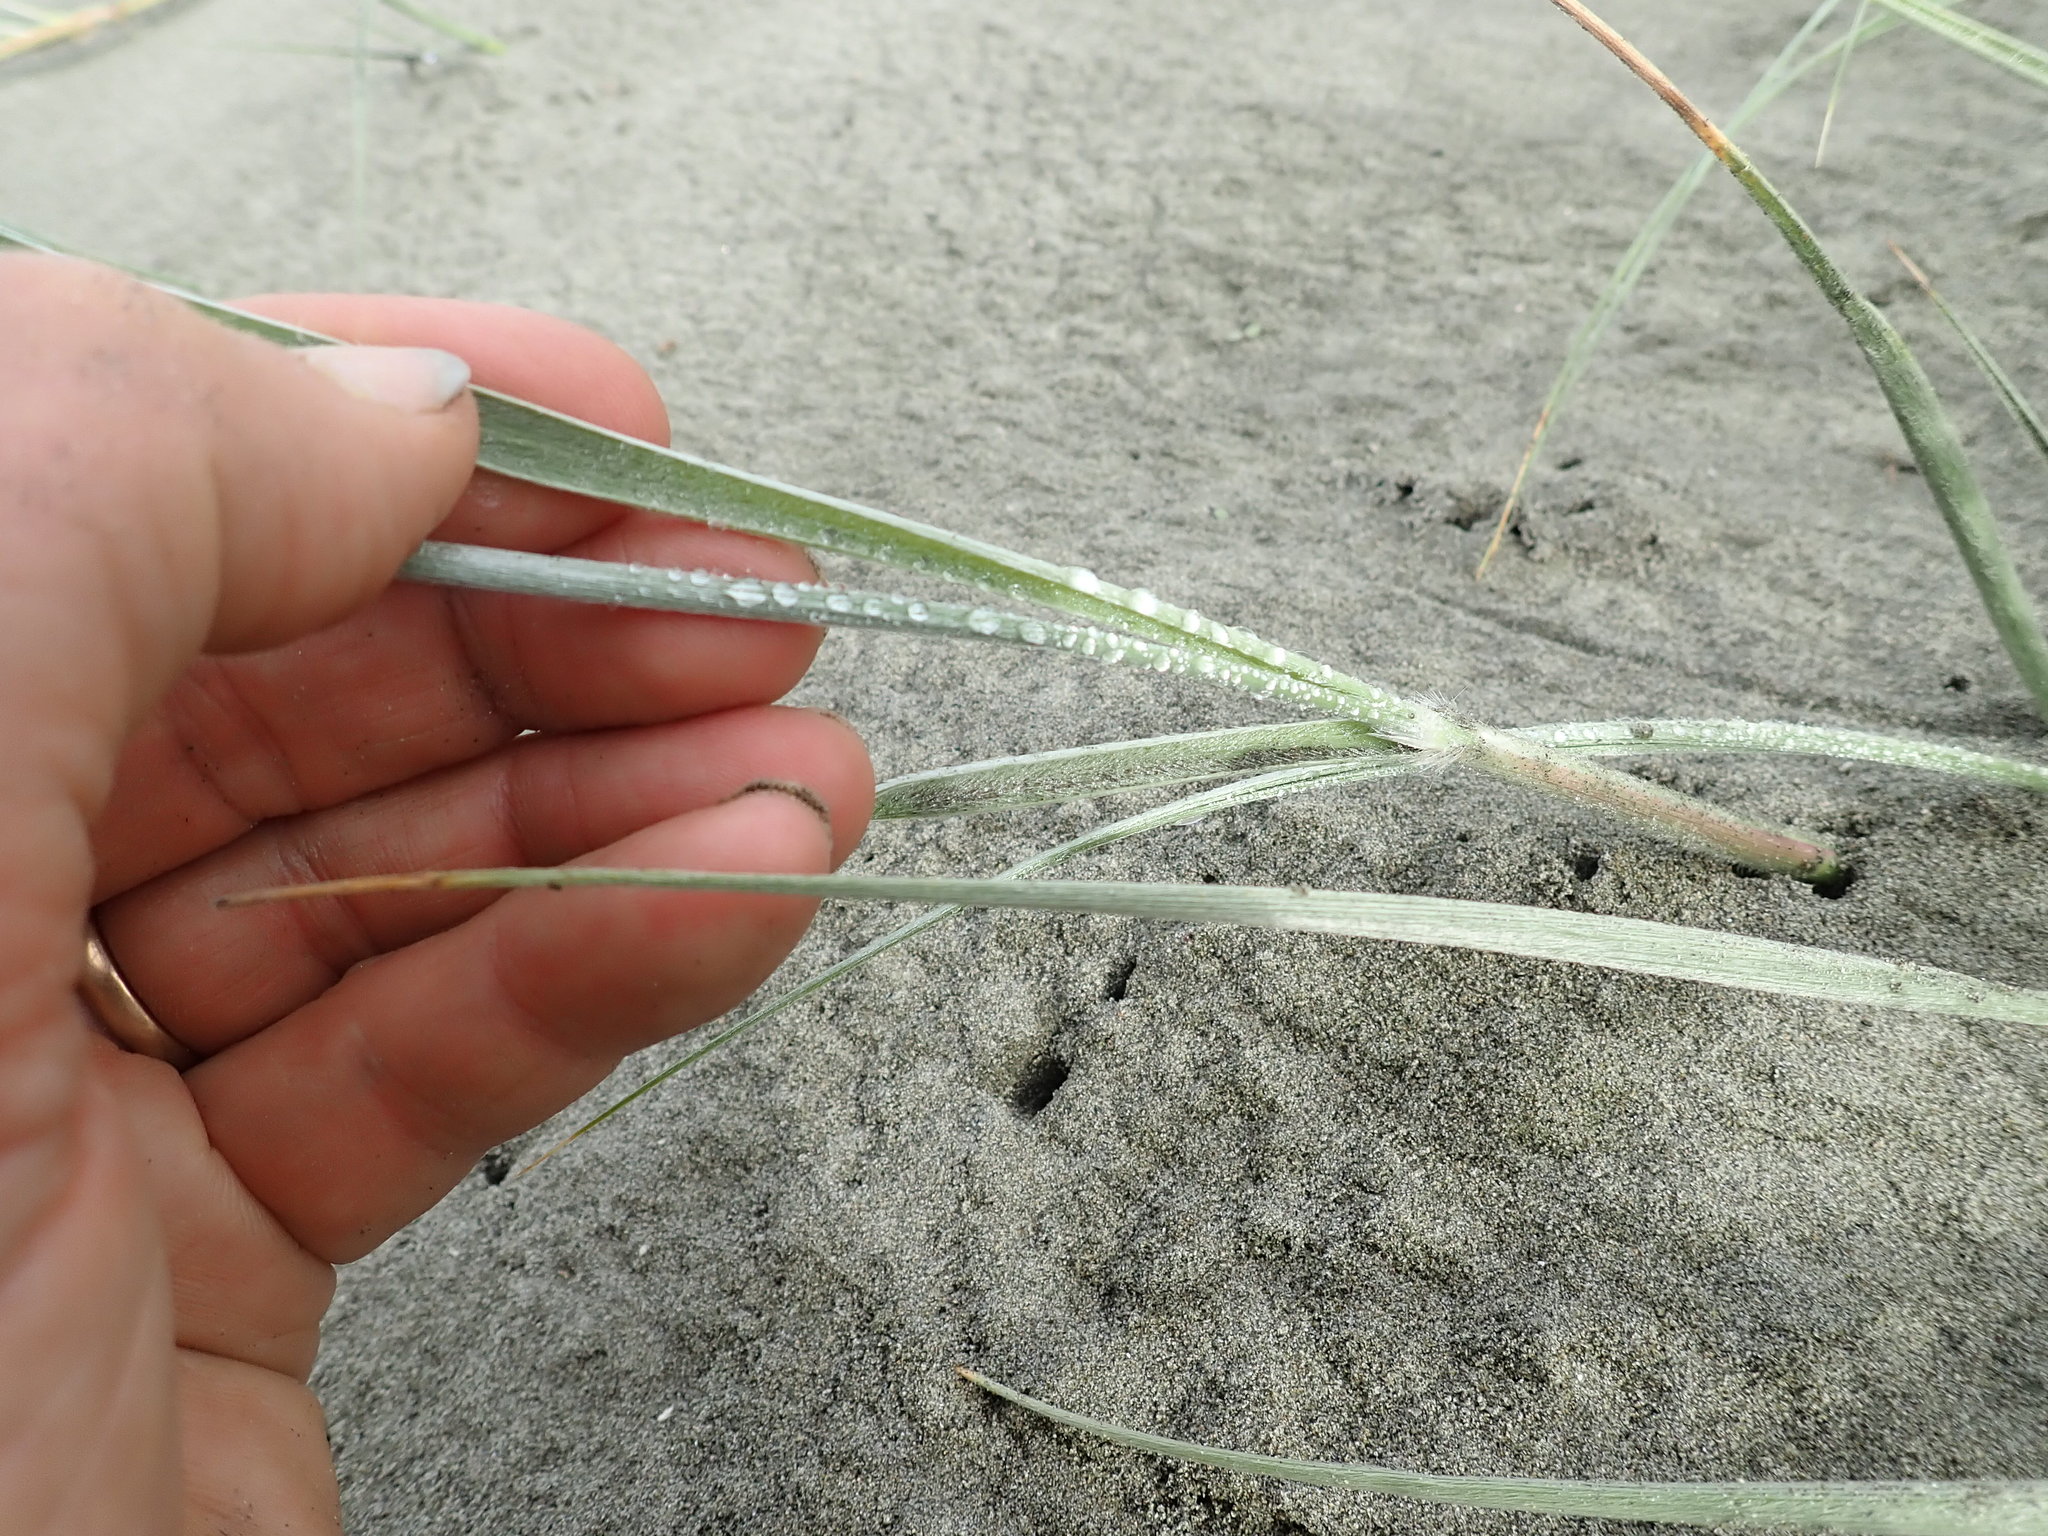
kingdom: Plantae
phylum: Tracheophyta
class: Liliopsida
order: Poales
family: Poaceae
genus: Spinifex
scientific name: Spinifex sericeus
